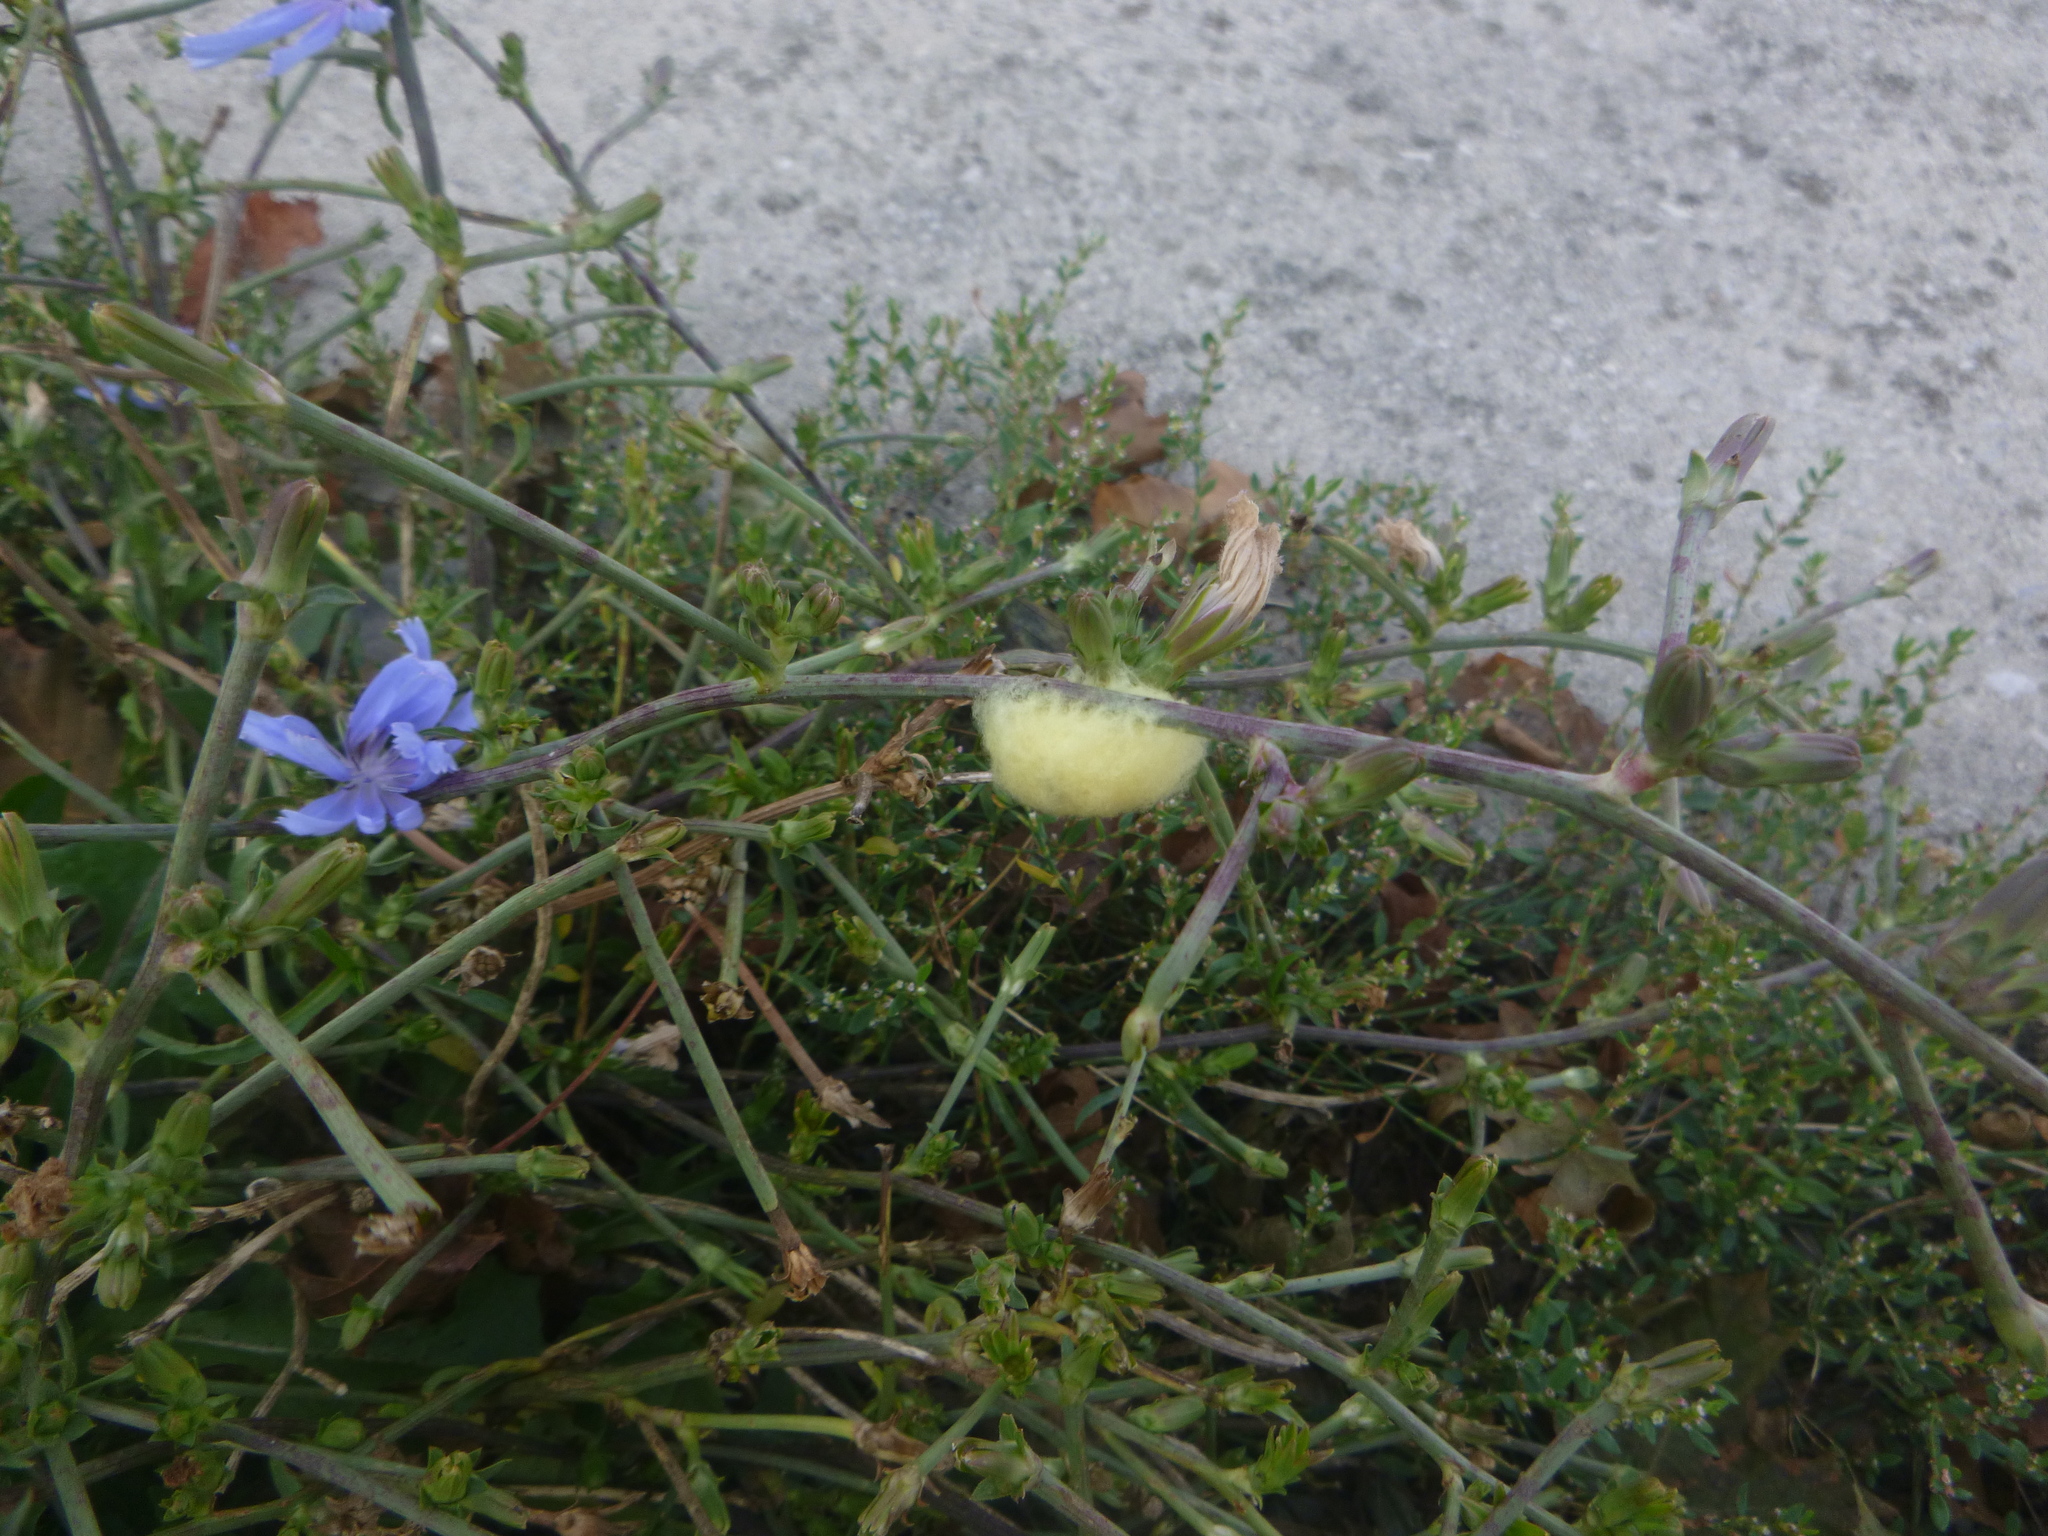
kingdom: Plantae
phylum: Tracheophyta
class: Magnoliopsida
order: Asterales
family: Asteraceae
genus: Cichorium
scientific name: Cichorium intybus
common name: Chicory
